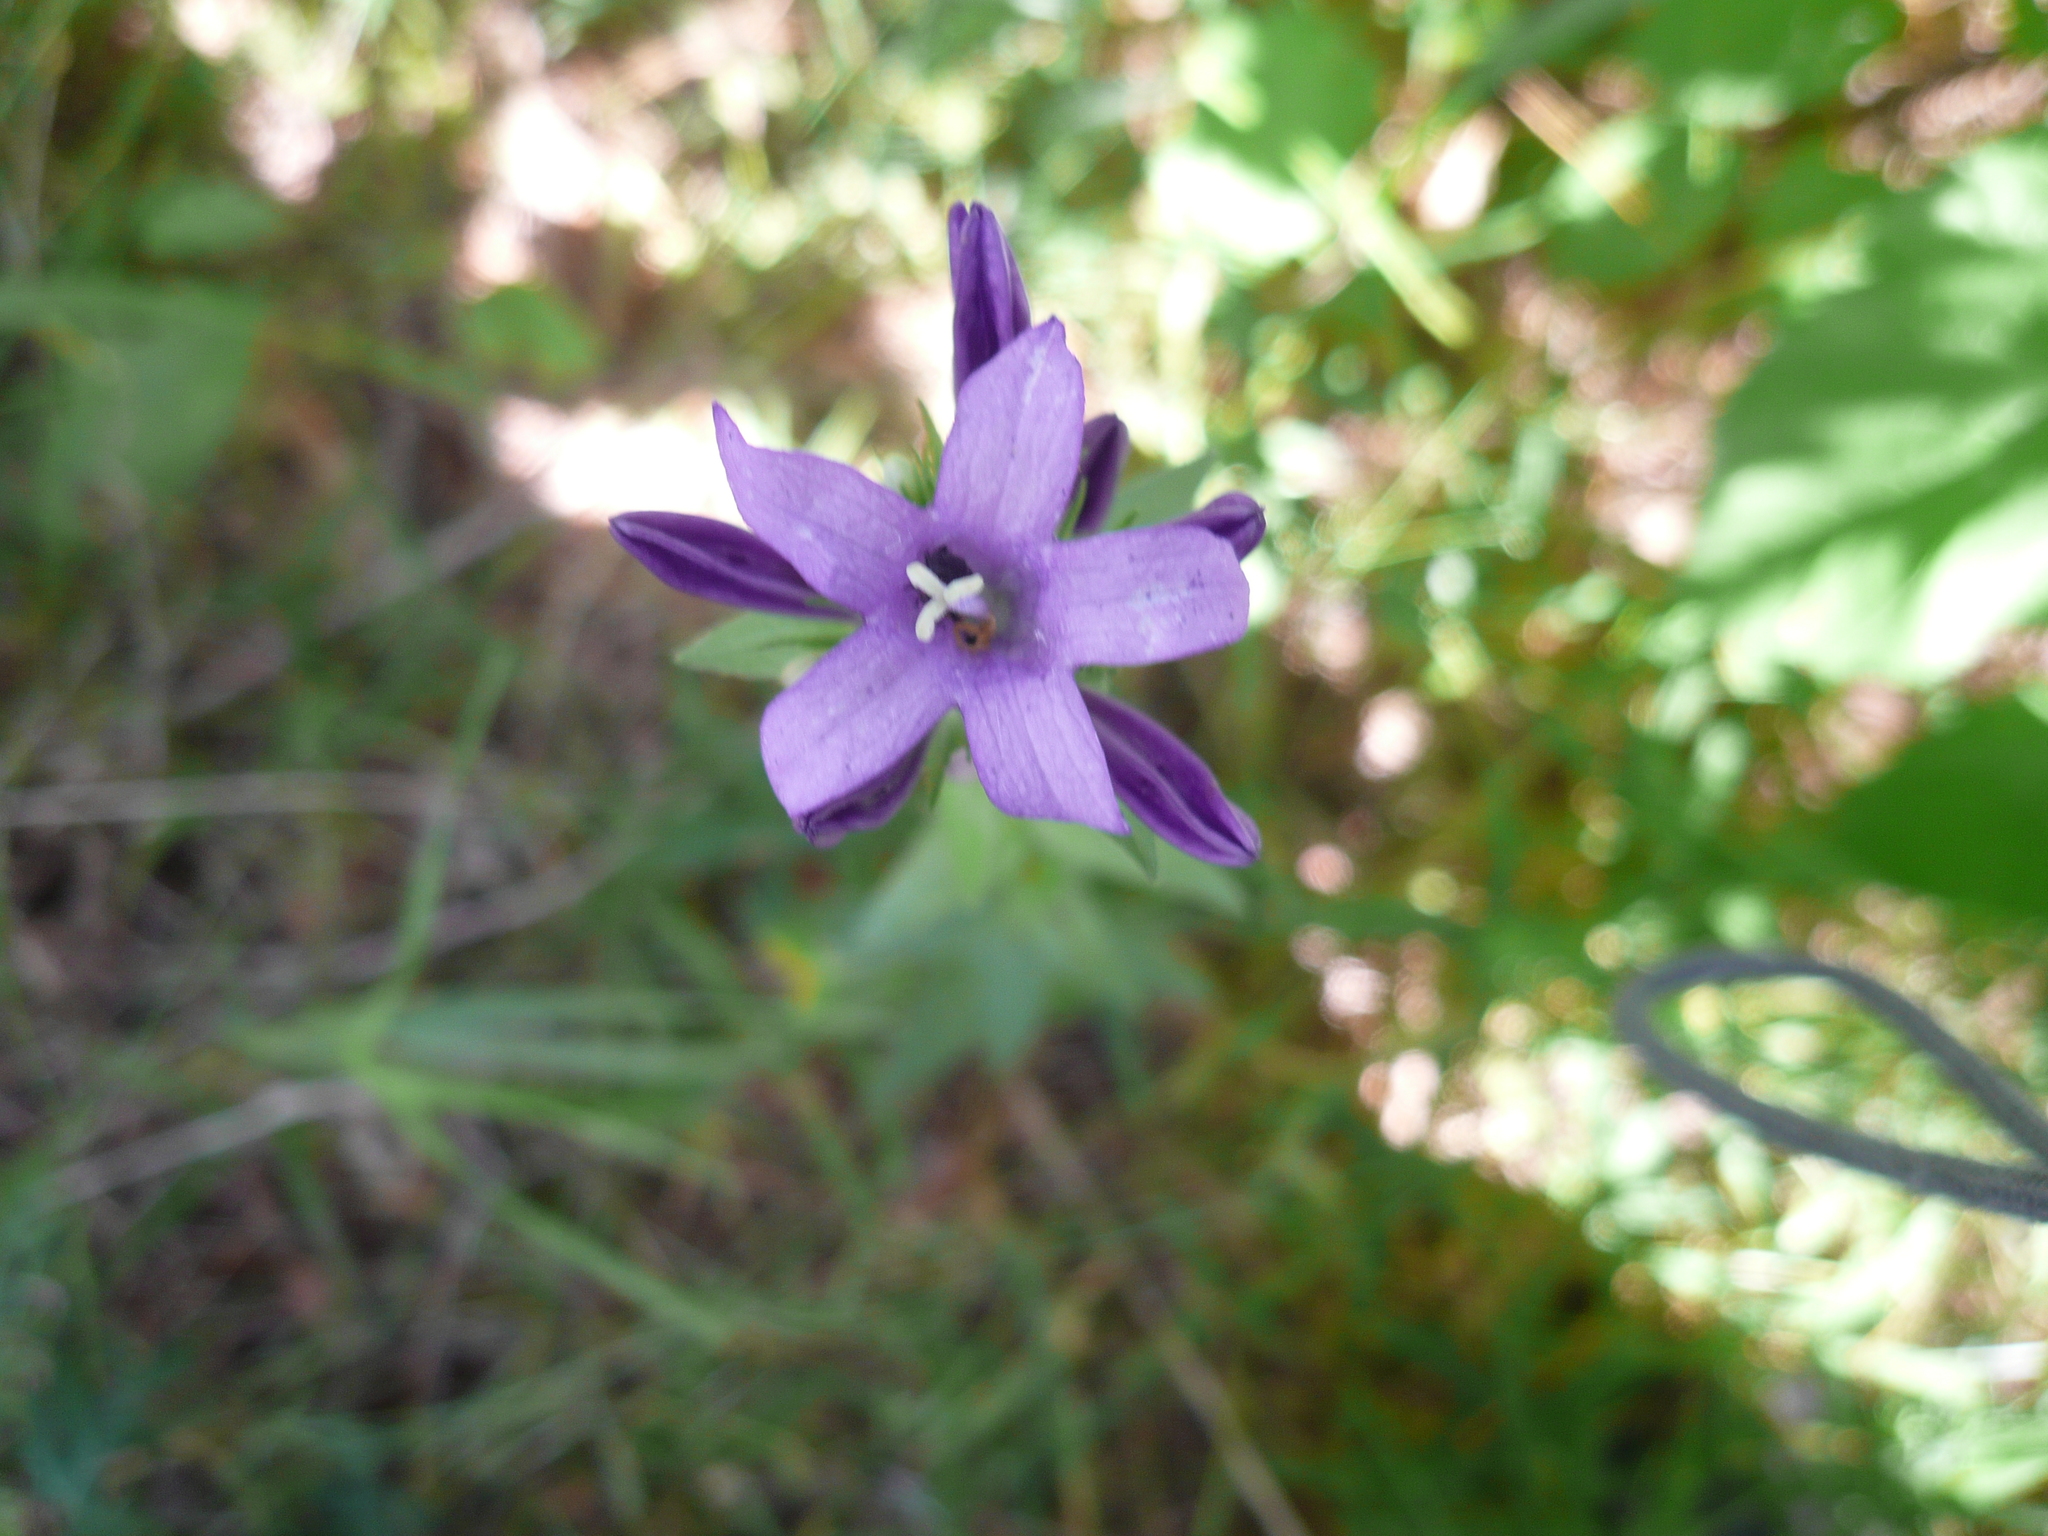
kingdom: Plantae
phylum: Tracheophyta
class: Magnoliopsida
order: Asterales
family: Campanulaceae
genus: Campanula
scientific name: Campanula glomerata
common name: Clustered bellflower
